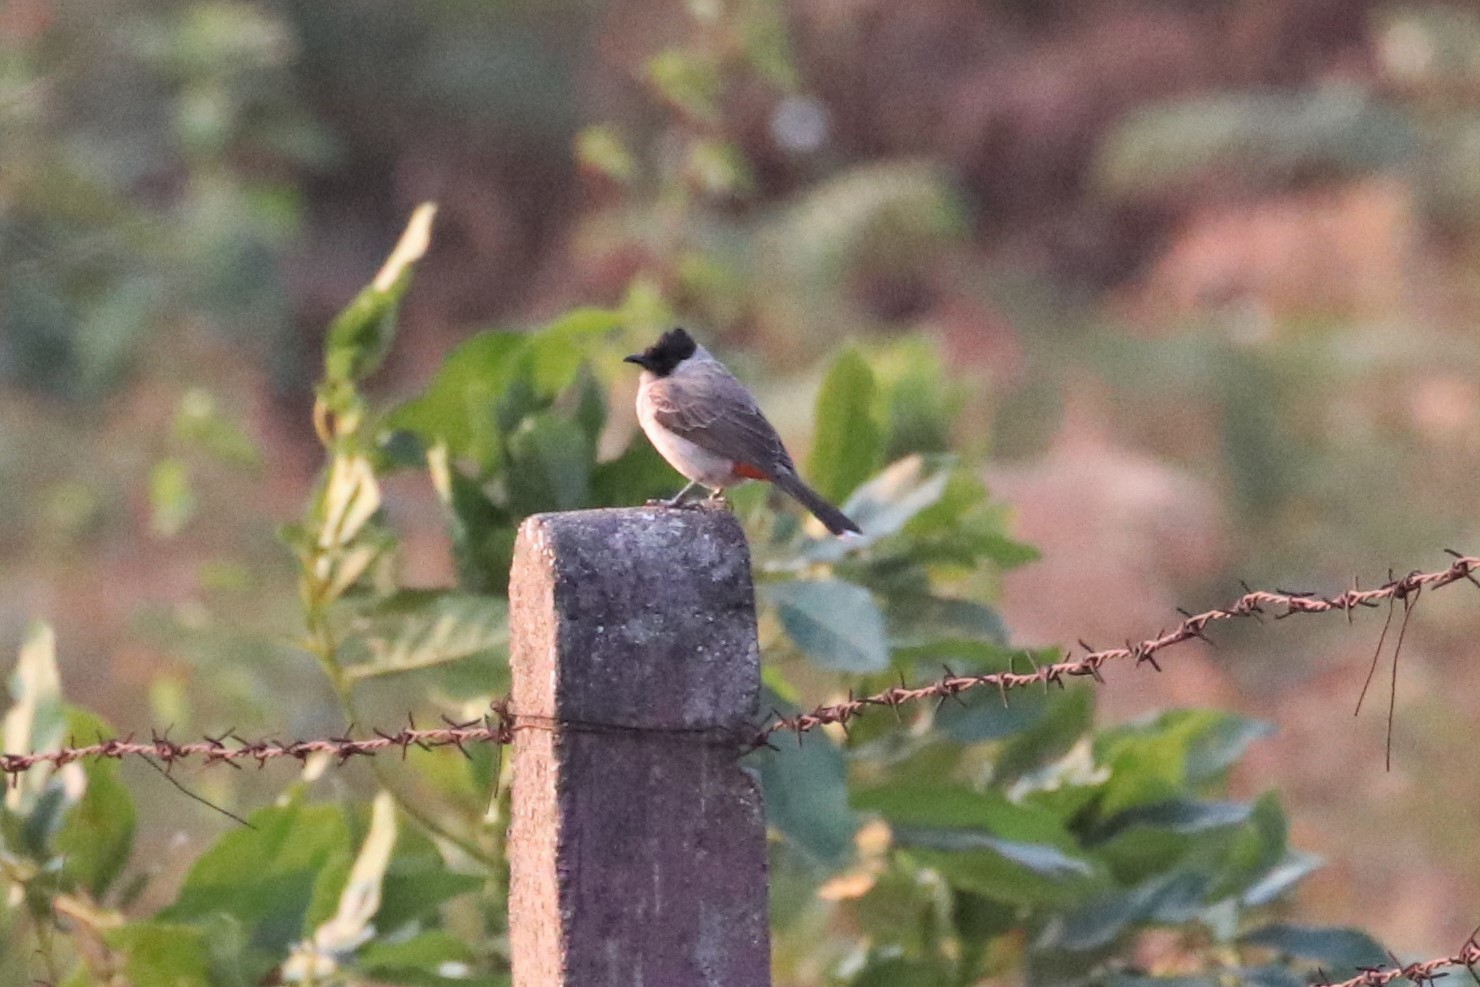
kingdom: Animalia
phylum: Chordata
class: Aves
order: Passeriformes
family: Pycnonotidae
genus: Pycnonotus
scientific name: Pycnonotus aurigaster
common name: Sooty-headed bulbul
